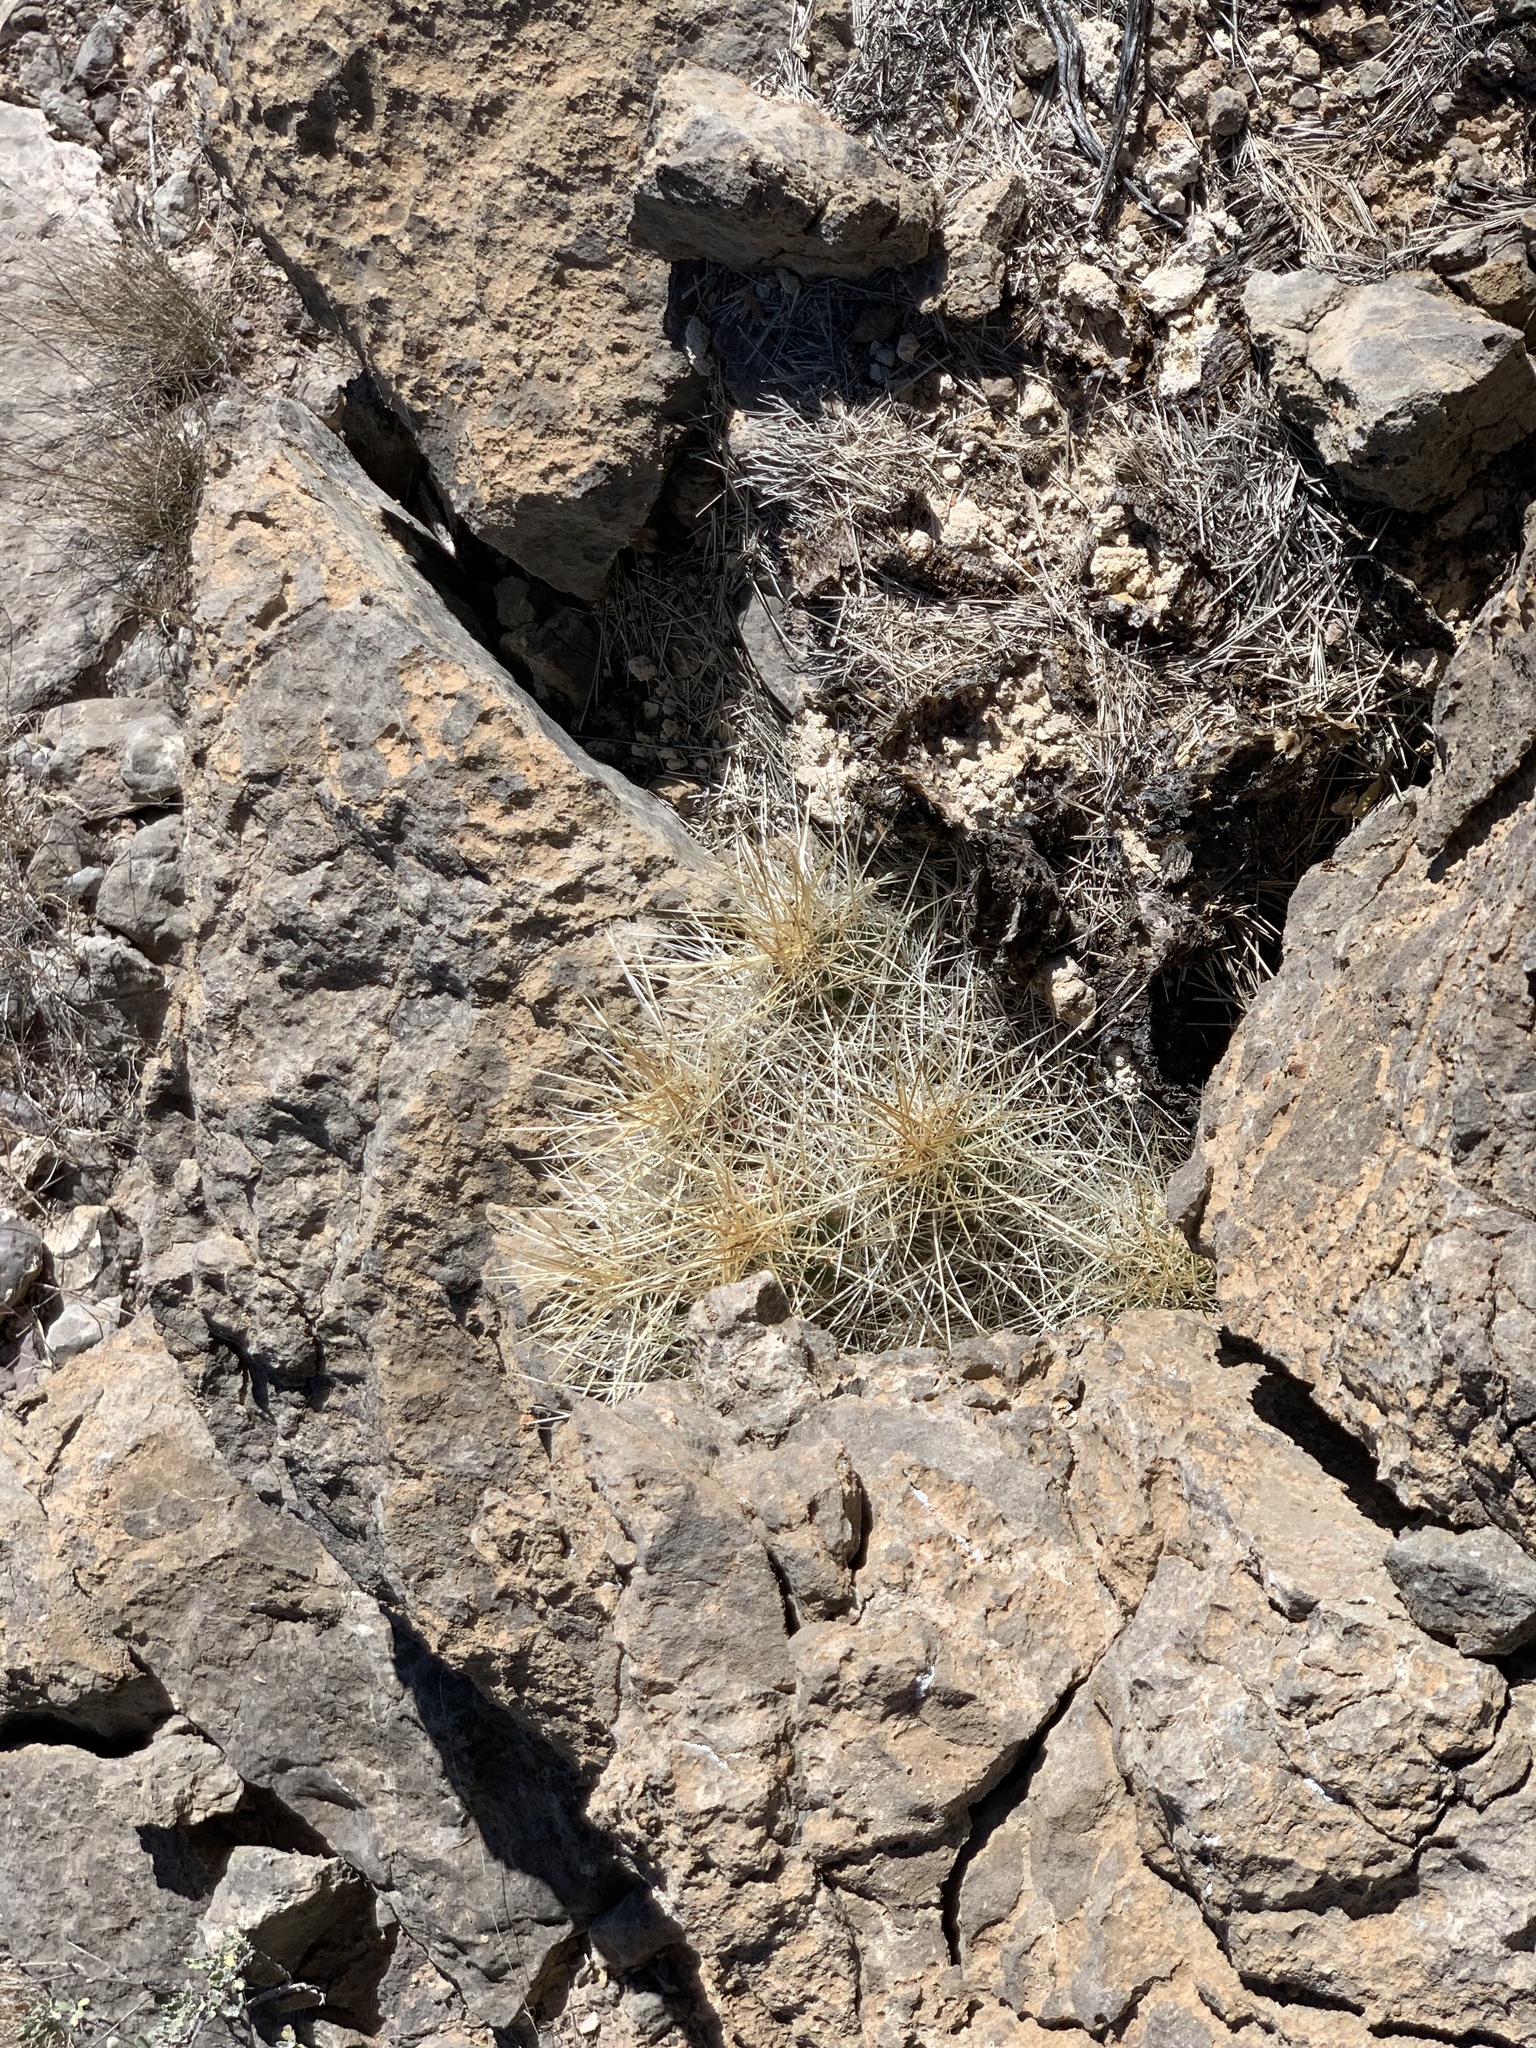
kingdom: Plantae
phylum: Tracheophyta
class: Magnoliopsida
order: Caryophyllales
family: Cactaceae
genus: Echinocereus
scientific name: Echinocereus stramineus
